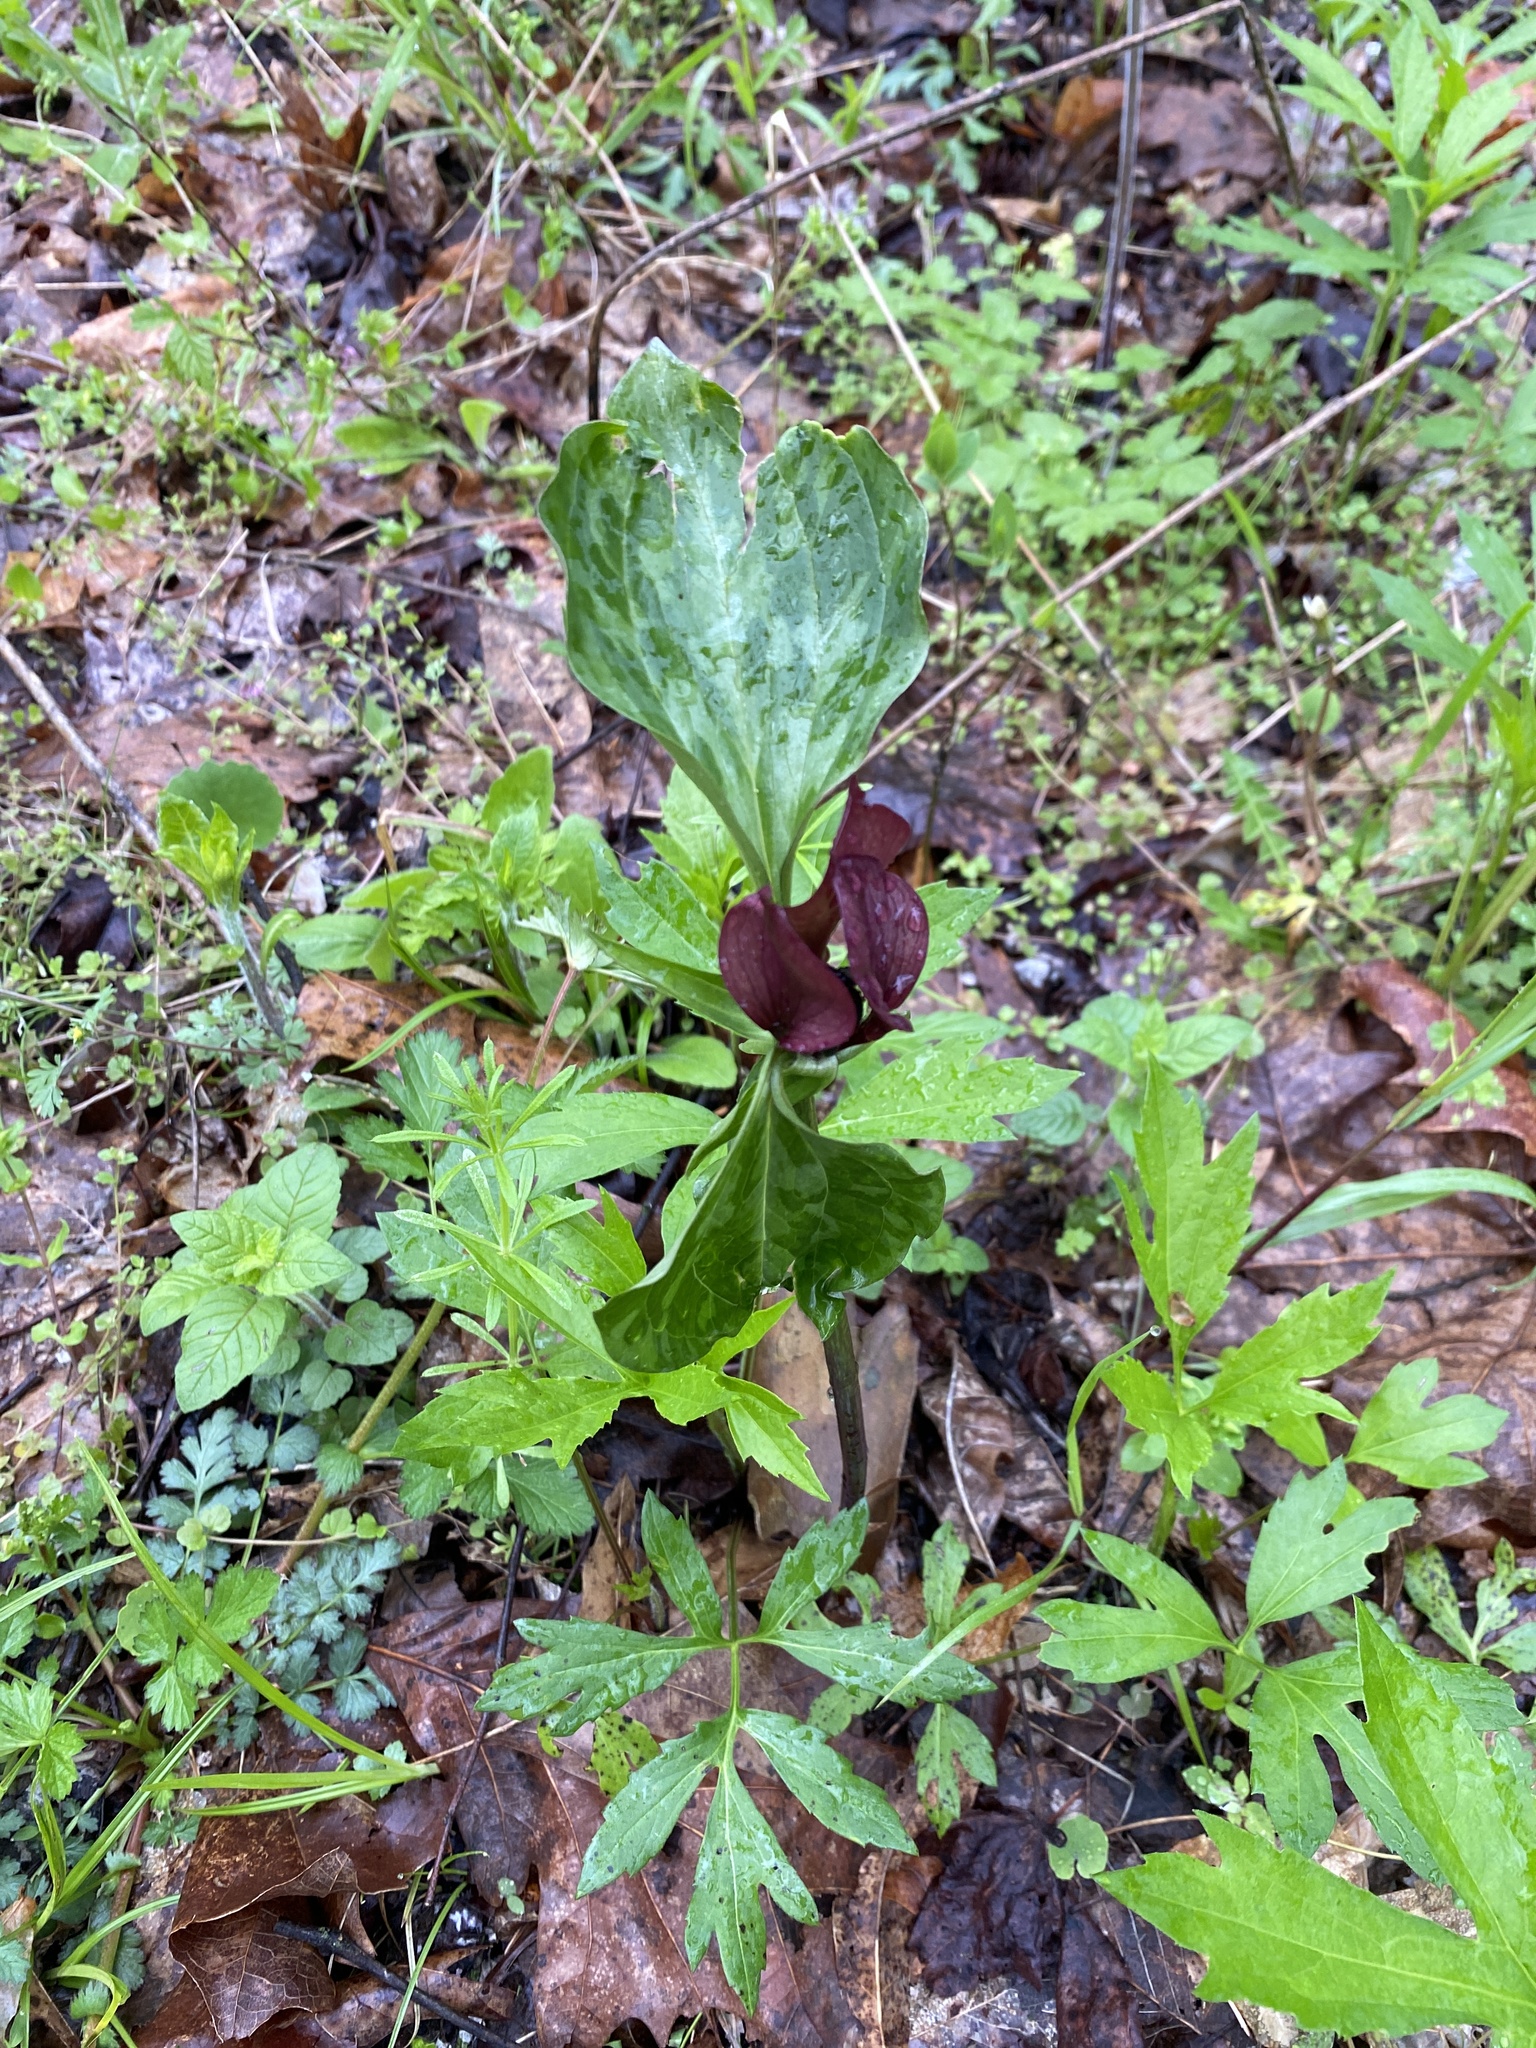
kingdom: Plantae
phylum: Tracheophyta
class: Liliopsida
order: Liliales
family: Melanthiaceae
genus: Trillium
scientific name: Trillium recurvatum
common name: Bloody butcher
